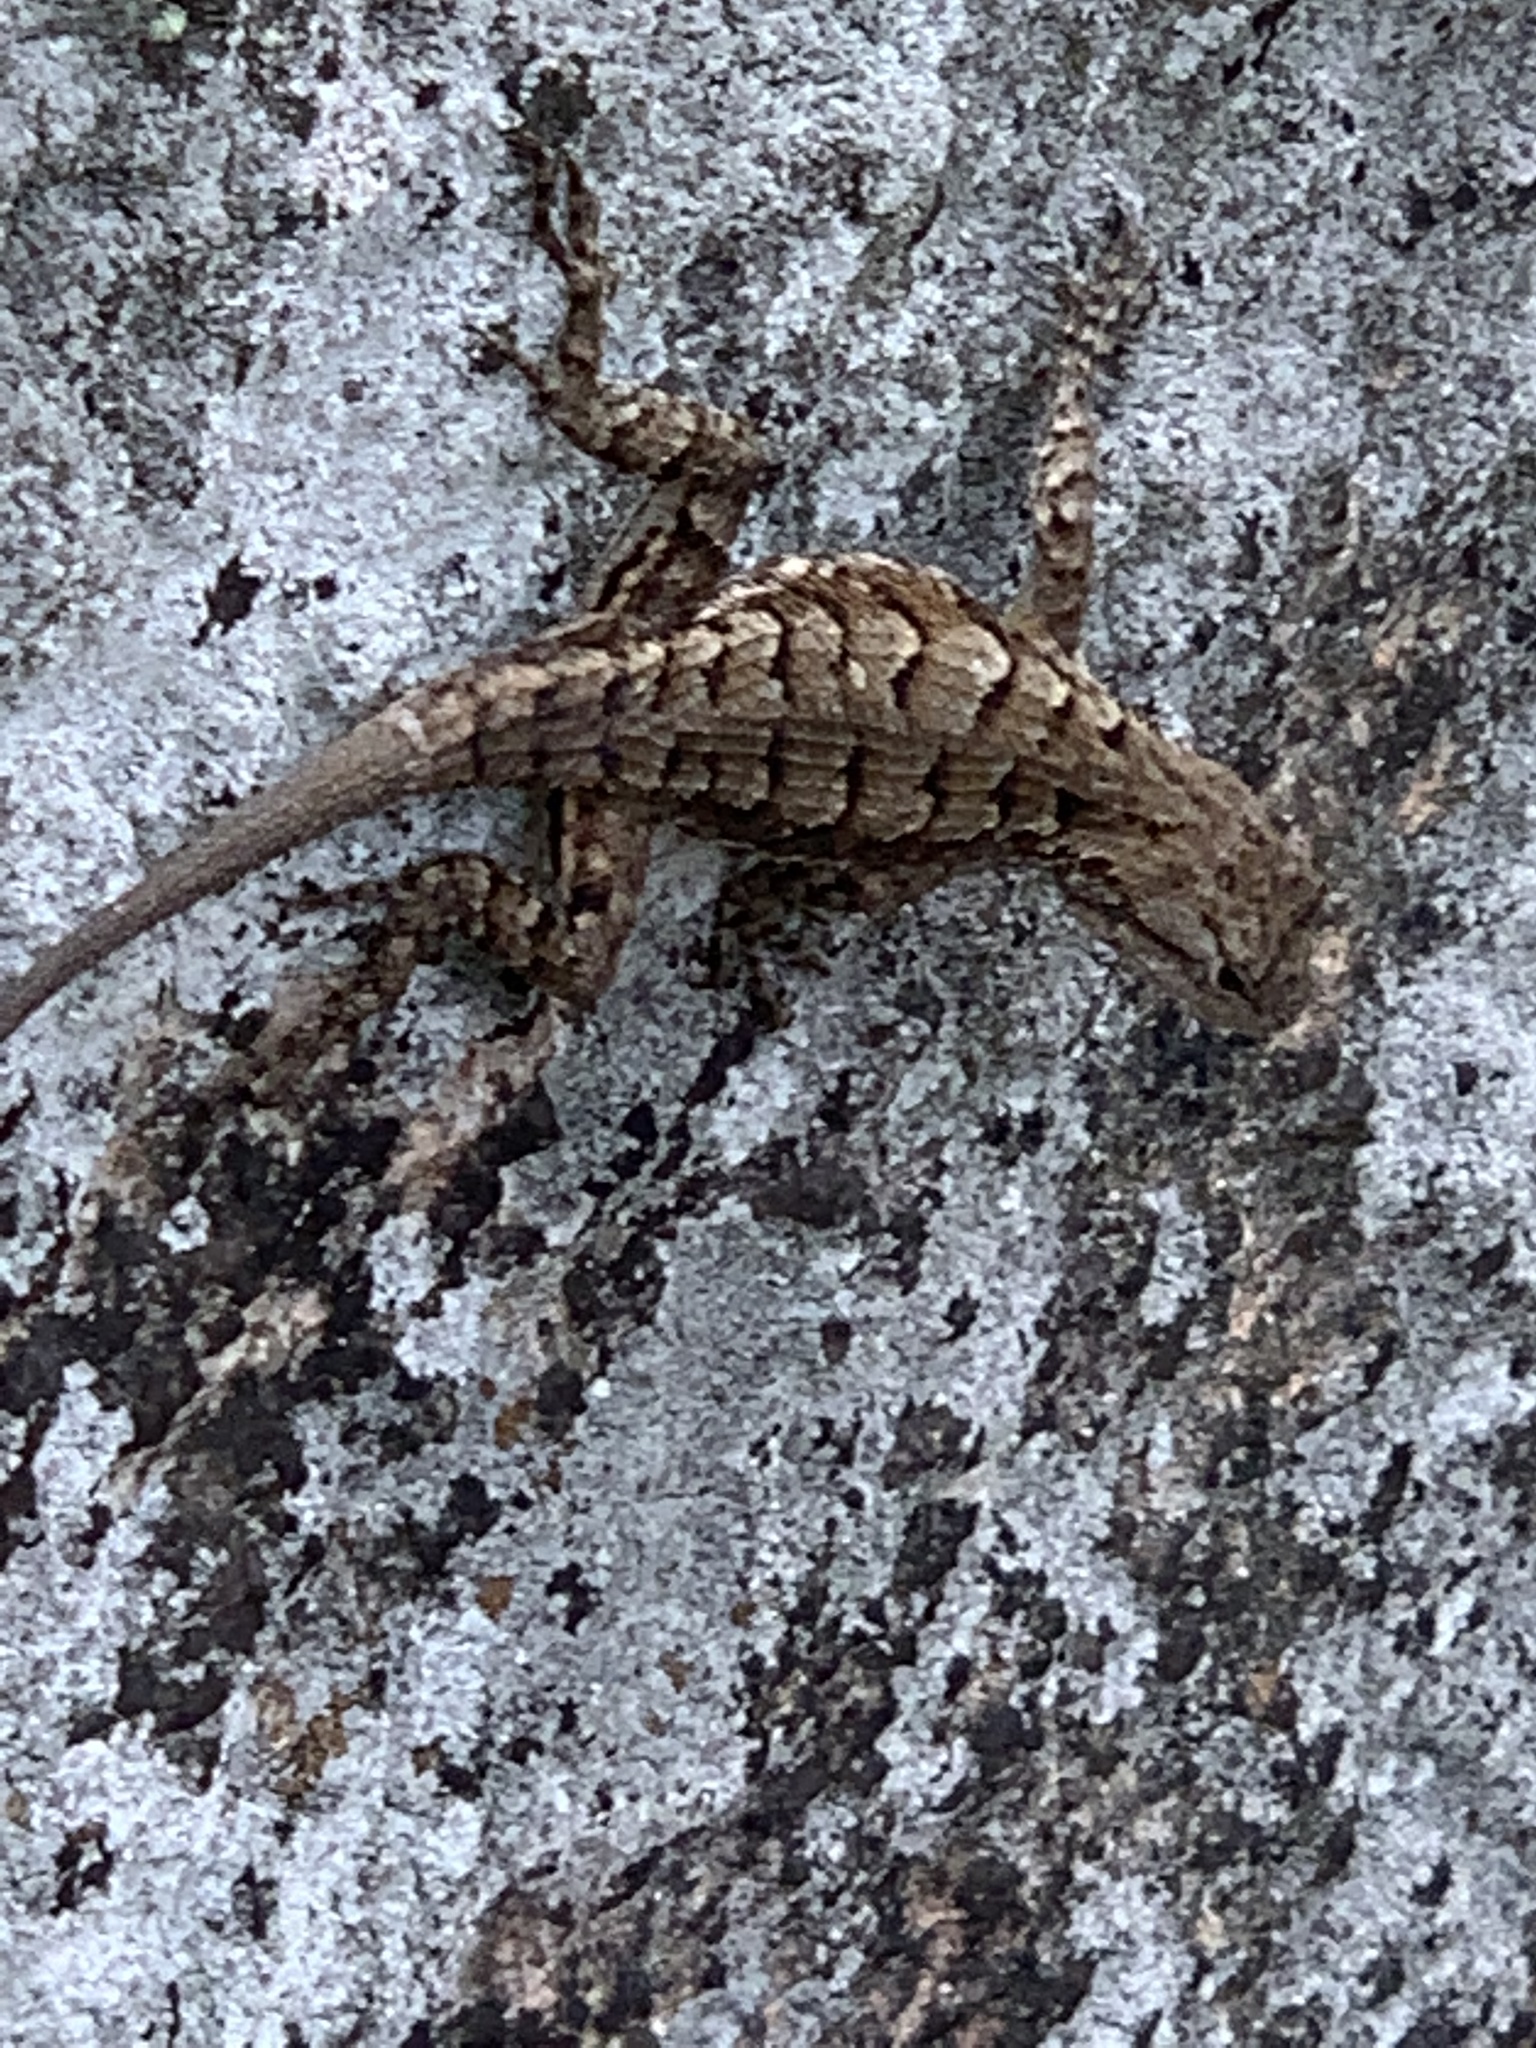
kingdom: Animalia
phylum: Chordata
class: Squamata
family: Phrynosomatidae
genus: Sceloporus
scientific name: Sceloporus consobrinus
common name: Southern prairie lizard
